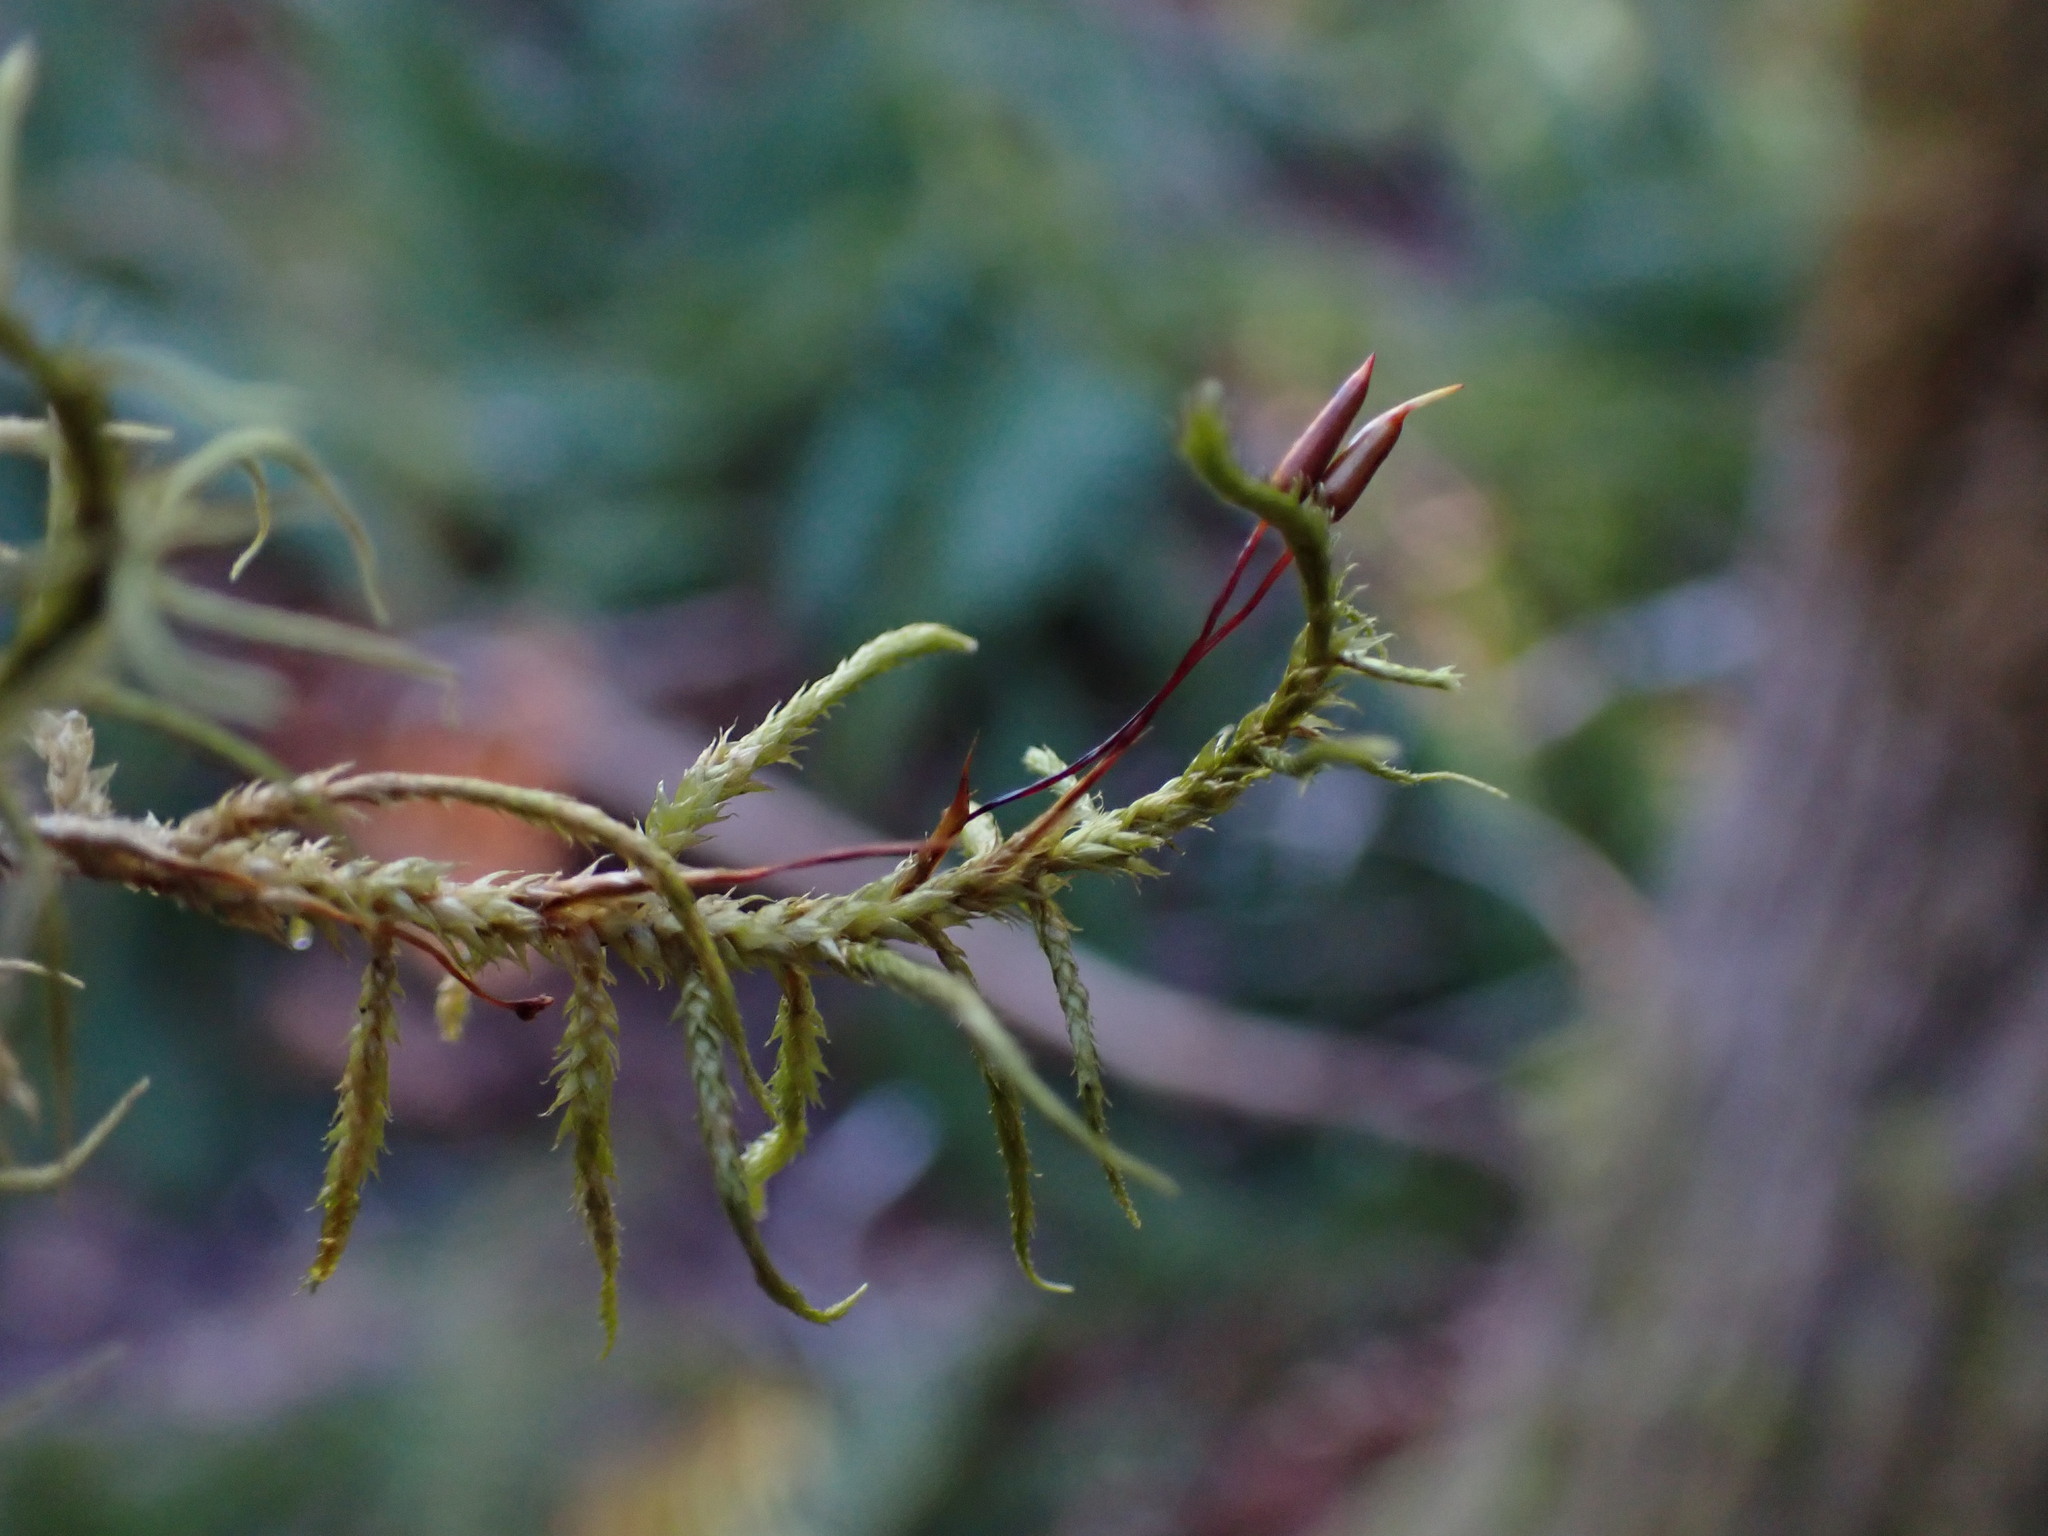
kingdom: Plantae
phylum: Bryophyta
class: Bryopsida
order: Hypnales
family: Antitrichiaceae
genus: Antitrichia
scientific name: Antitrichia californica
